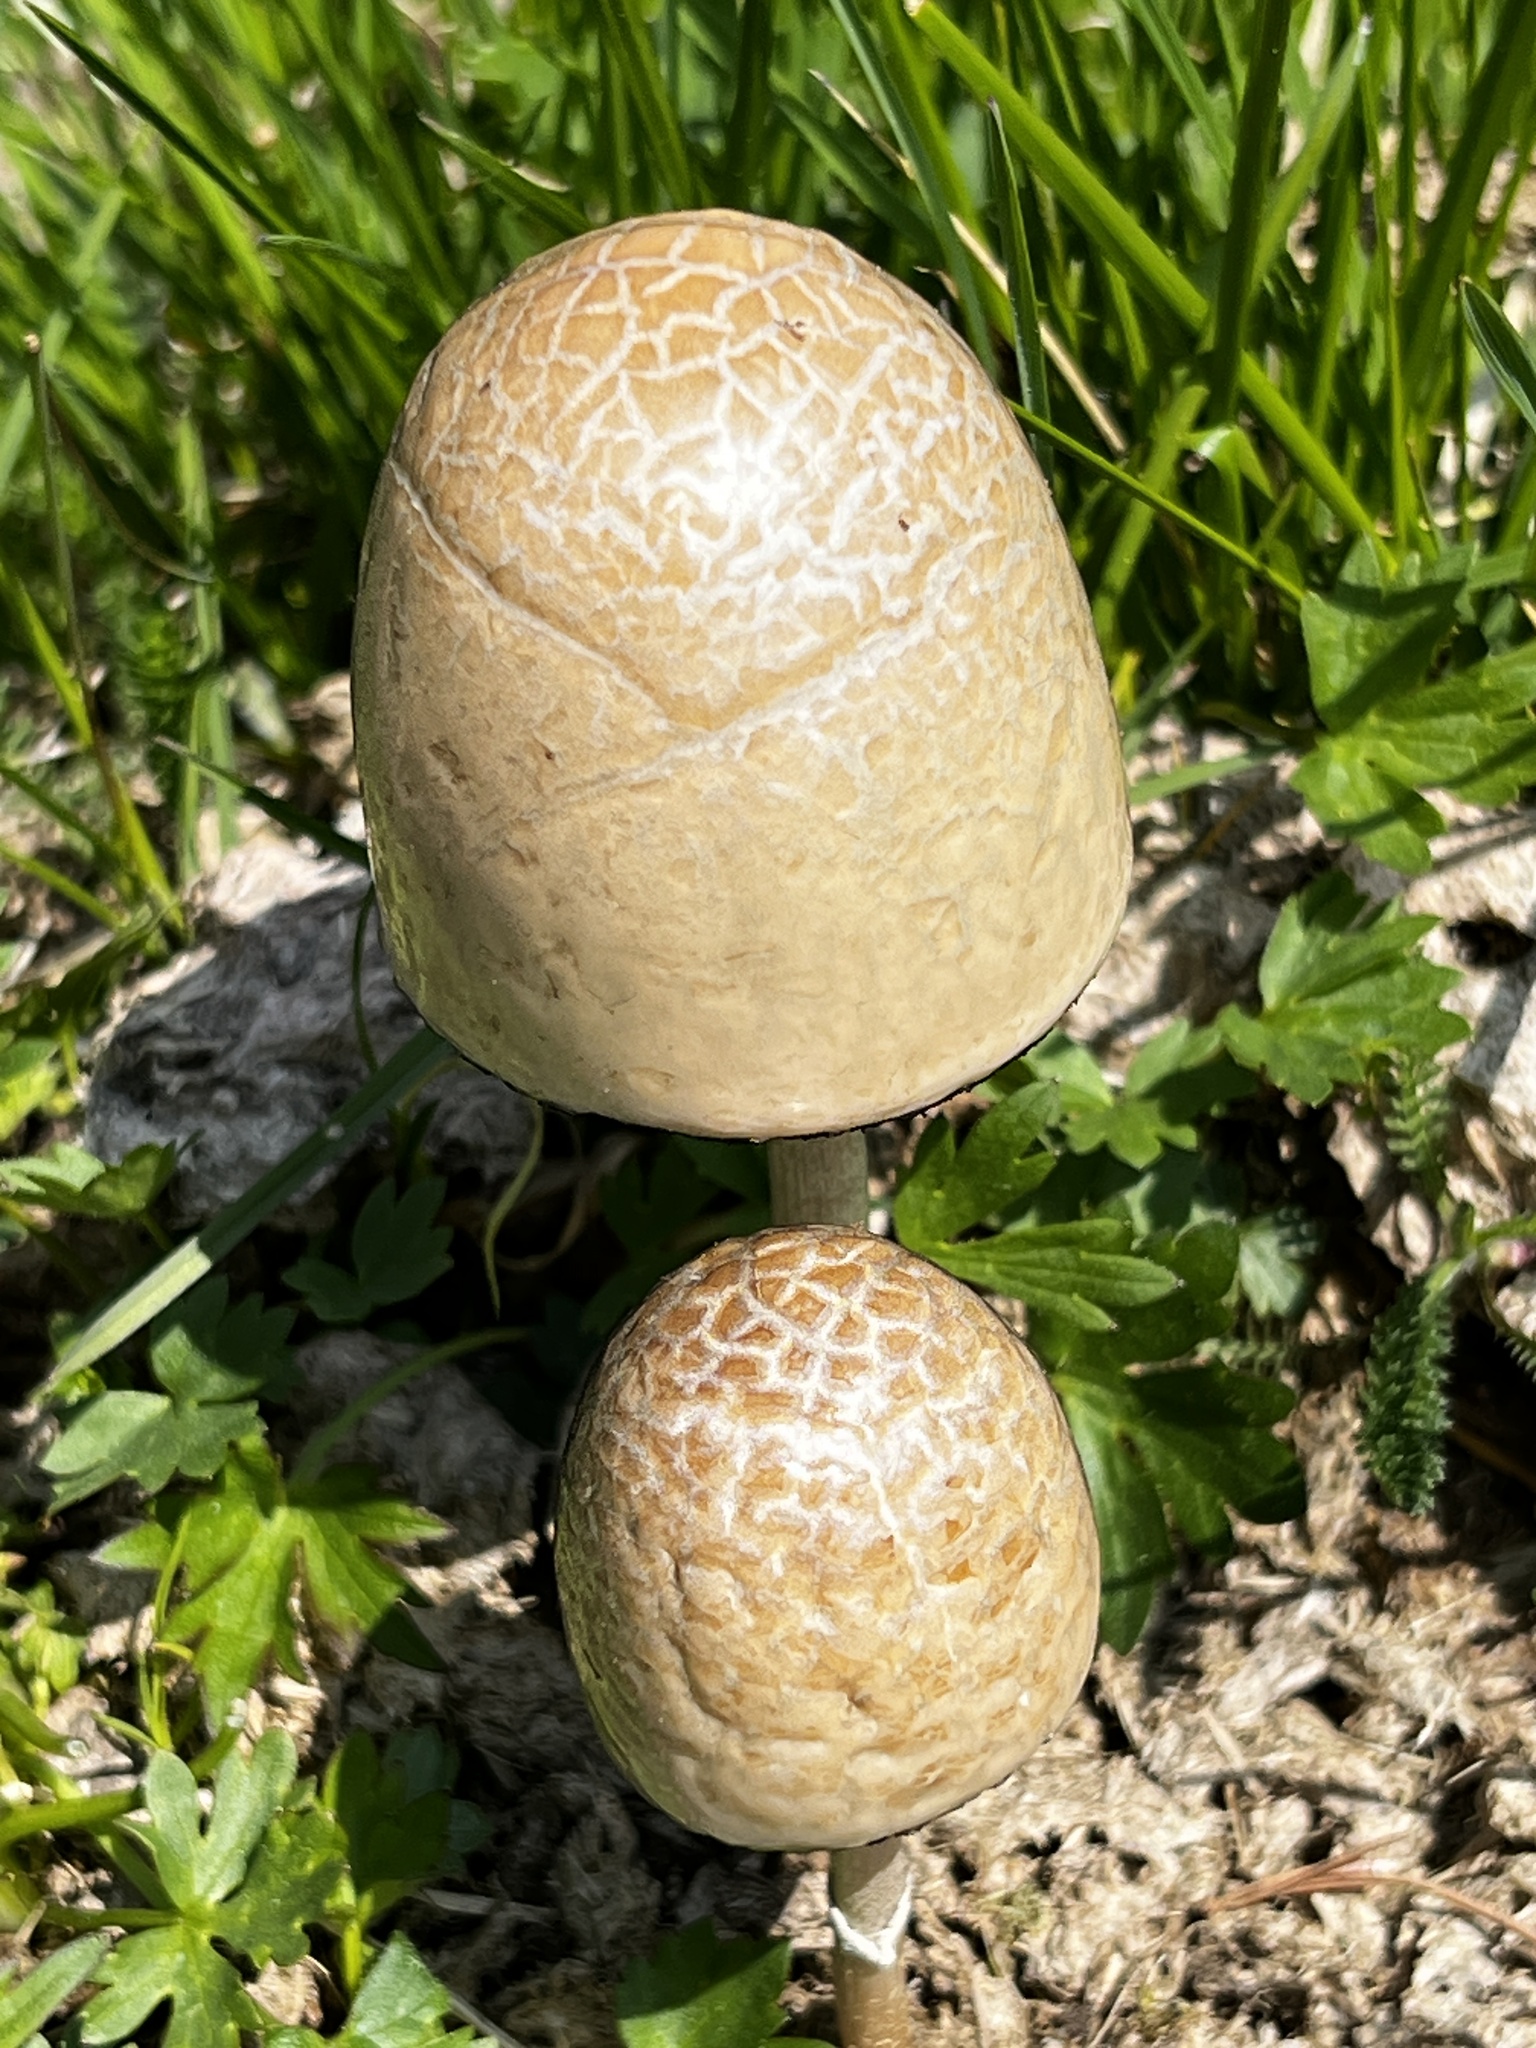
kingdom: Fungi
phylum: Basidiomycota
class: Agaricomycetes
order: Agaricales
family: Bolbitiaceae
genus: Panaeolus
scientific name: Panaeolus semiovatus
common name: Shiny mottlegill
